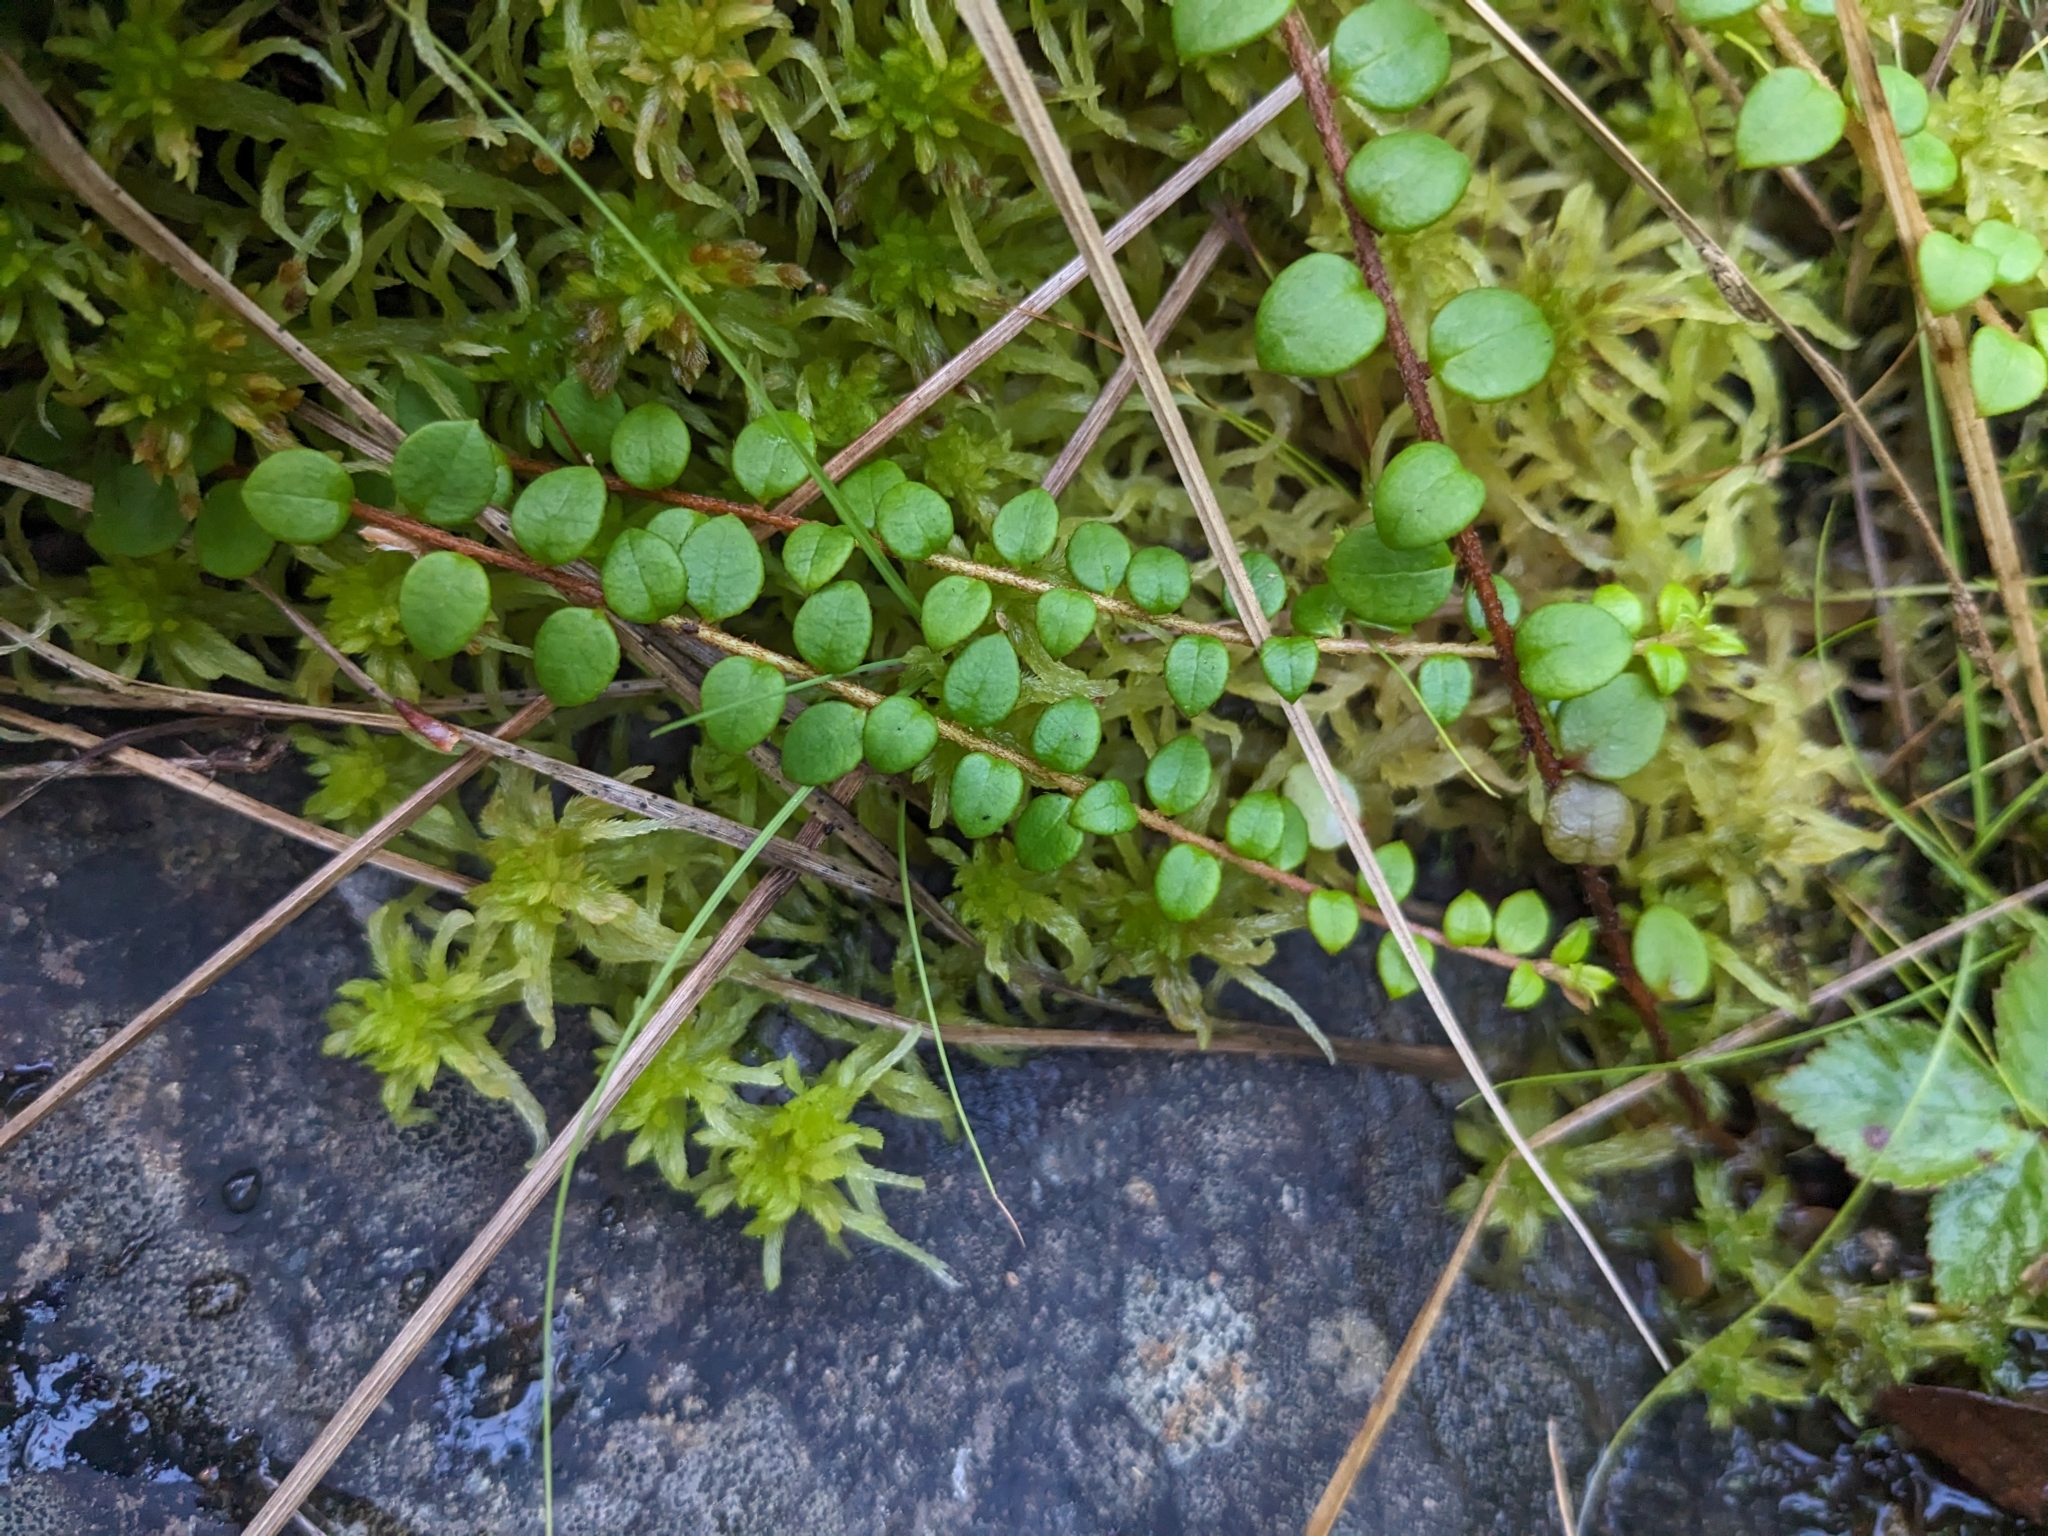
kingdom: Plantae
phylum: Tracheophyta
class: Magnoliopsida
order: Ericales
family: Ericaceae
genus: Gaultheria
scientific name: Gaultheria hispidula
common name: Cancer wintergreen
